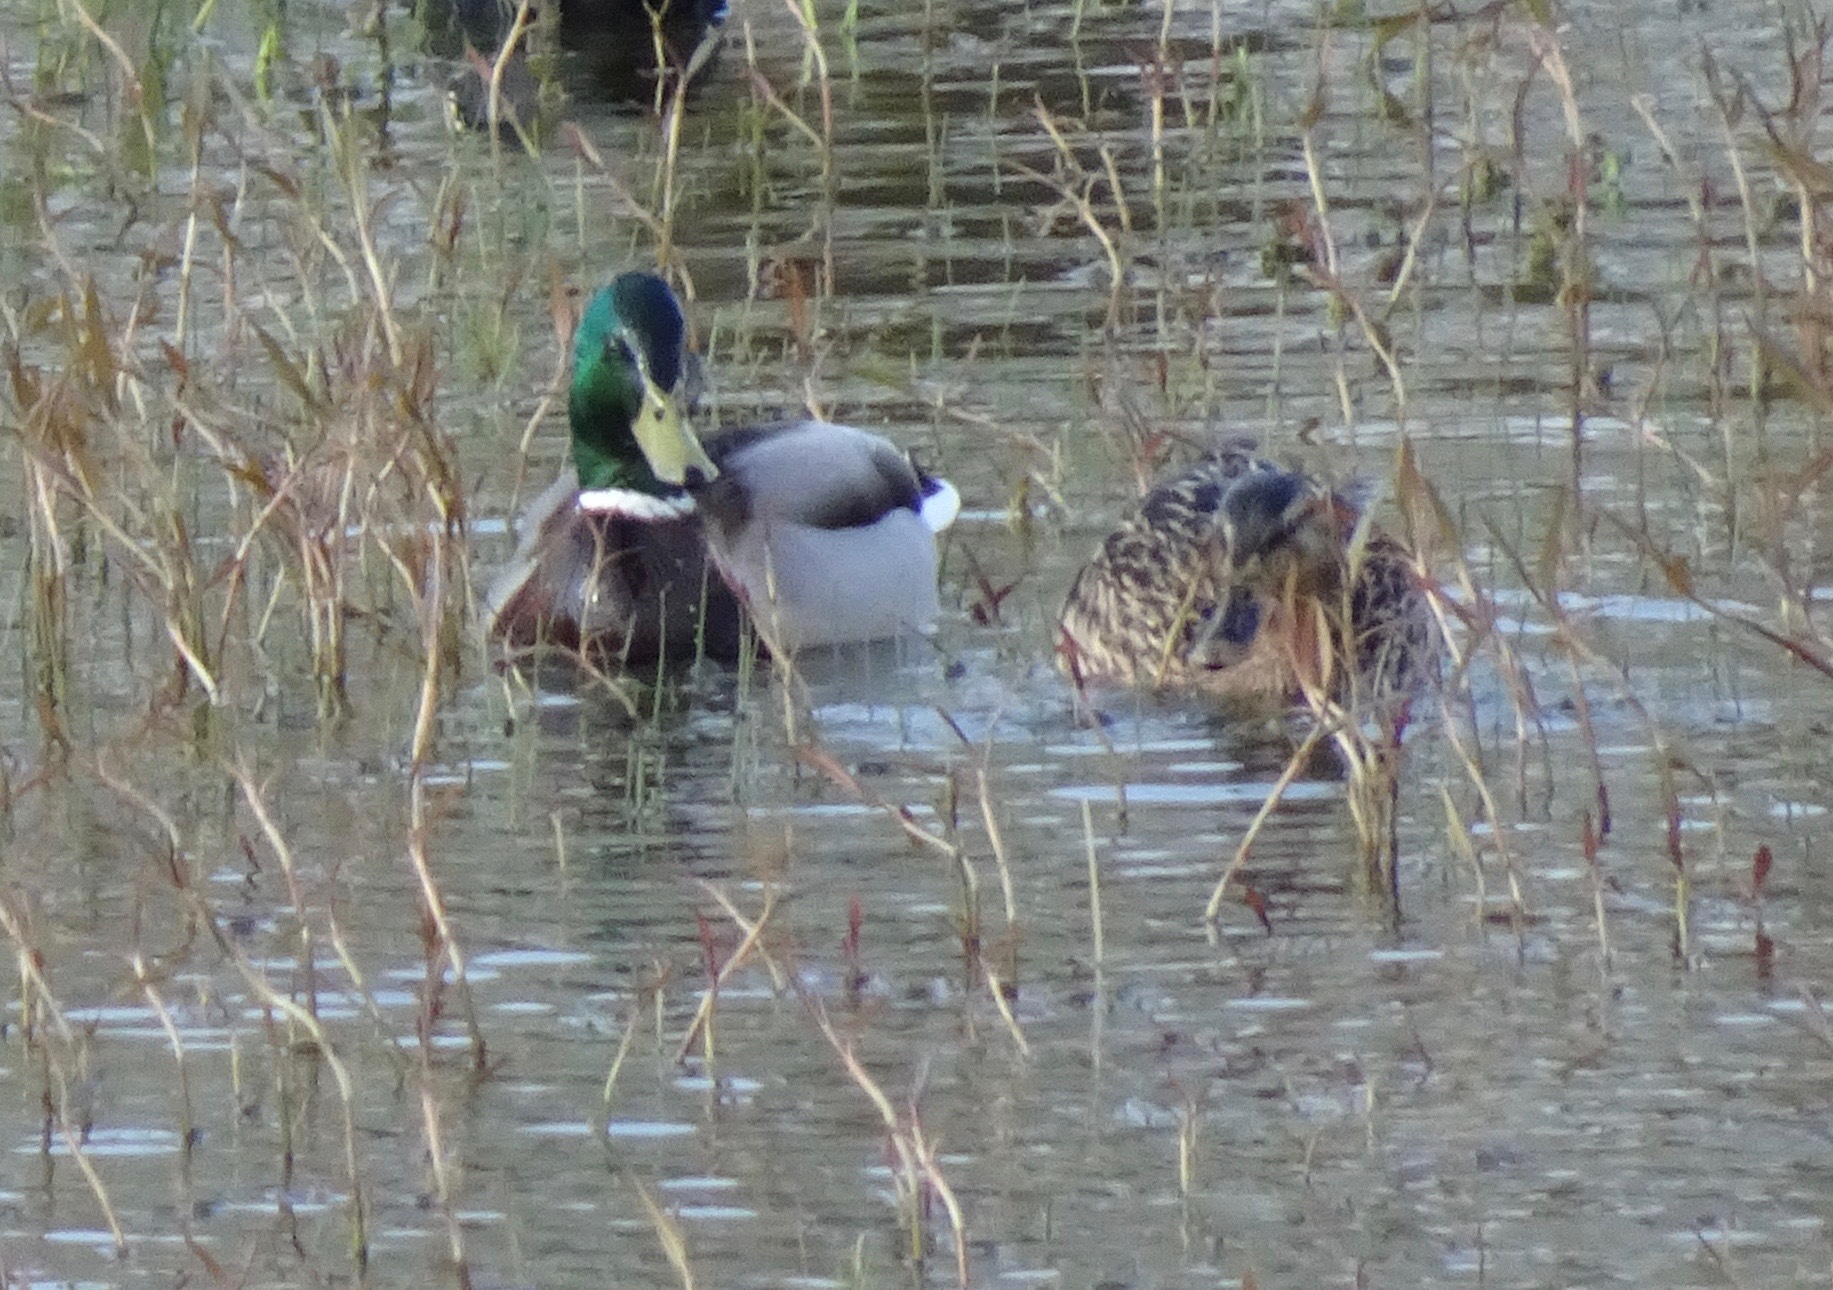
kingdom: Animalia
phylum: Chordata
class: Aves
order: Anseriformes
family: Anatidae
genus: Anas
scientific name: Anas platyrhynchos
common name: Mallard
